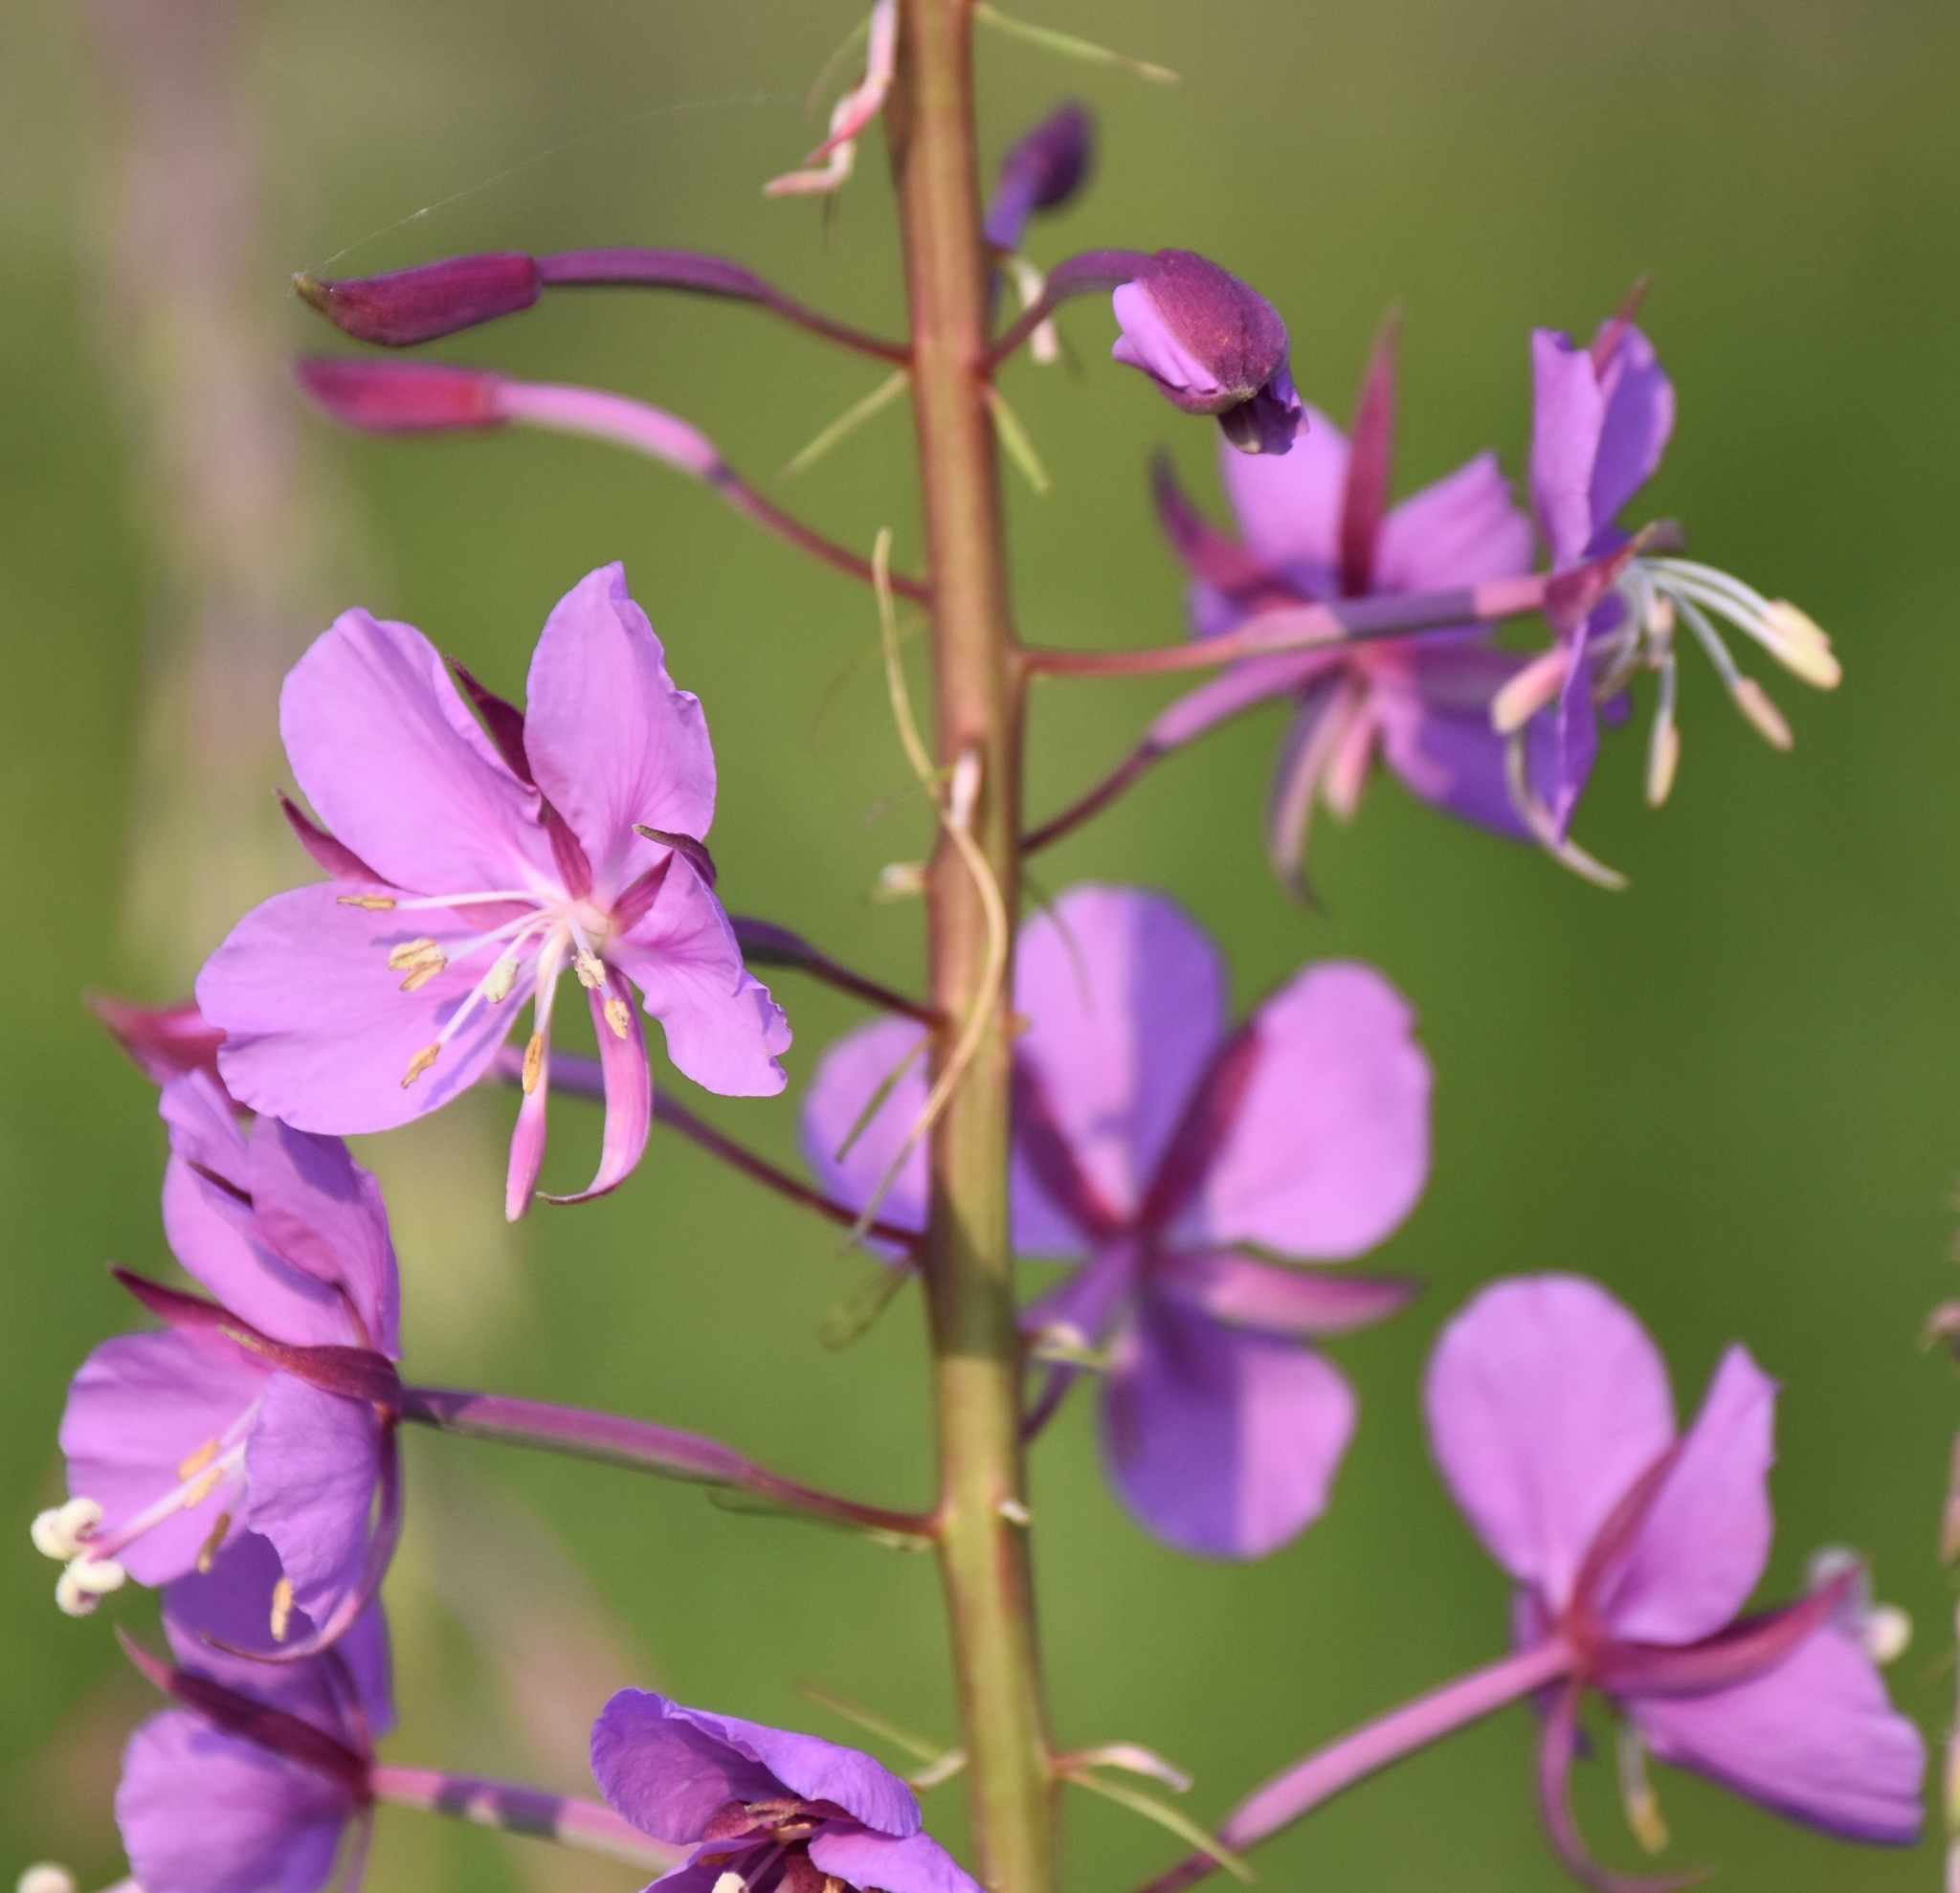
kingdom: Plantae
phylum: Tracheophyta
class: Magnoliopsida
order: Myrtales
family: Onagraceae
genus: Chamaenerion
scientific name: Chamaenerion angustifolium
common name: Fireweed
